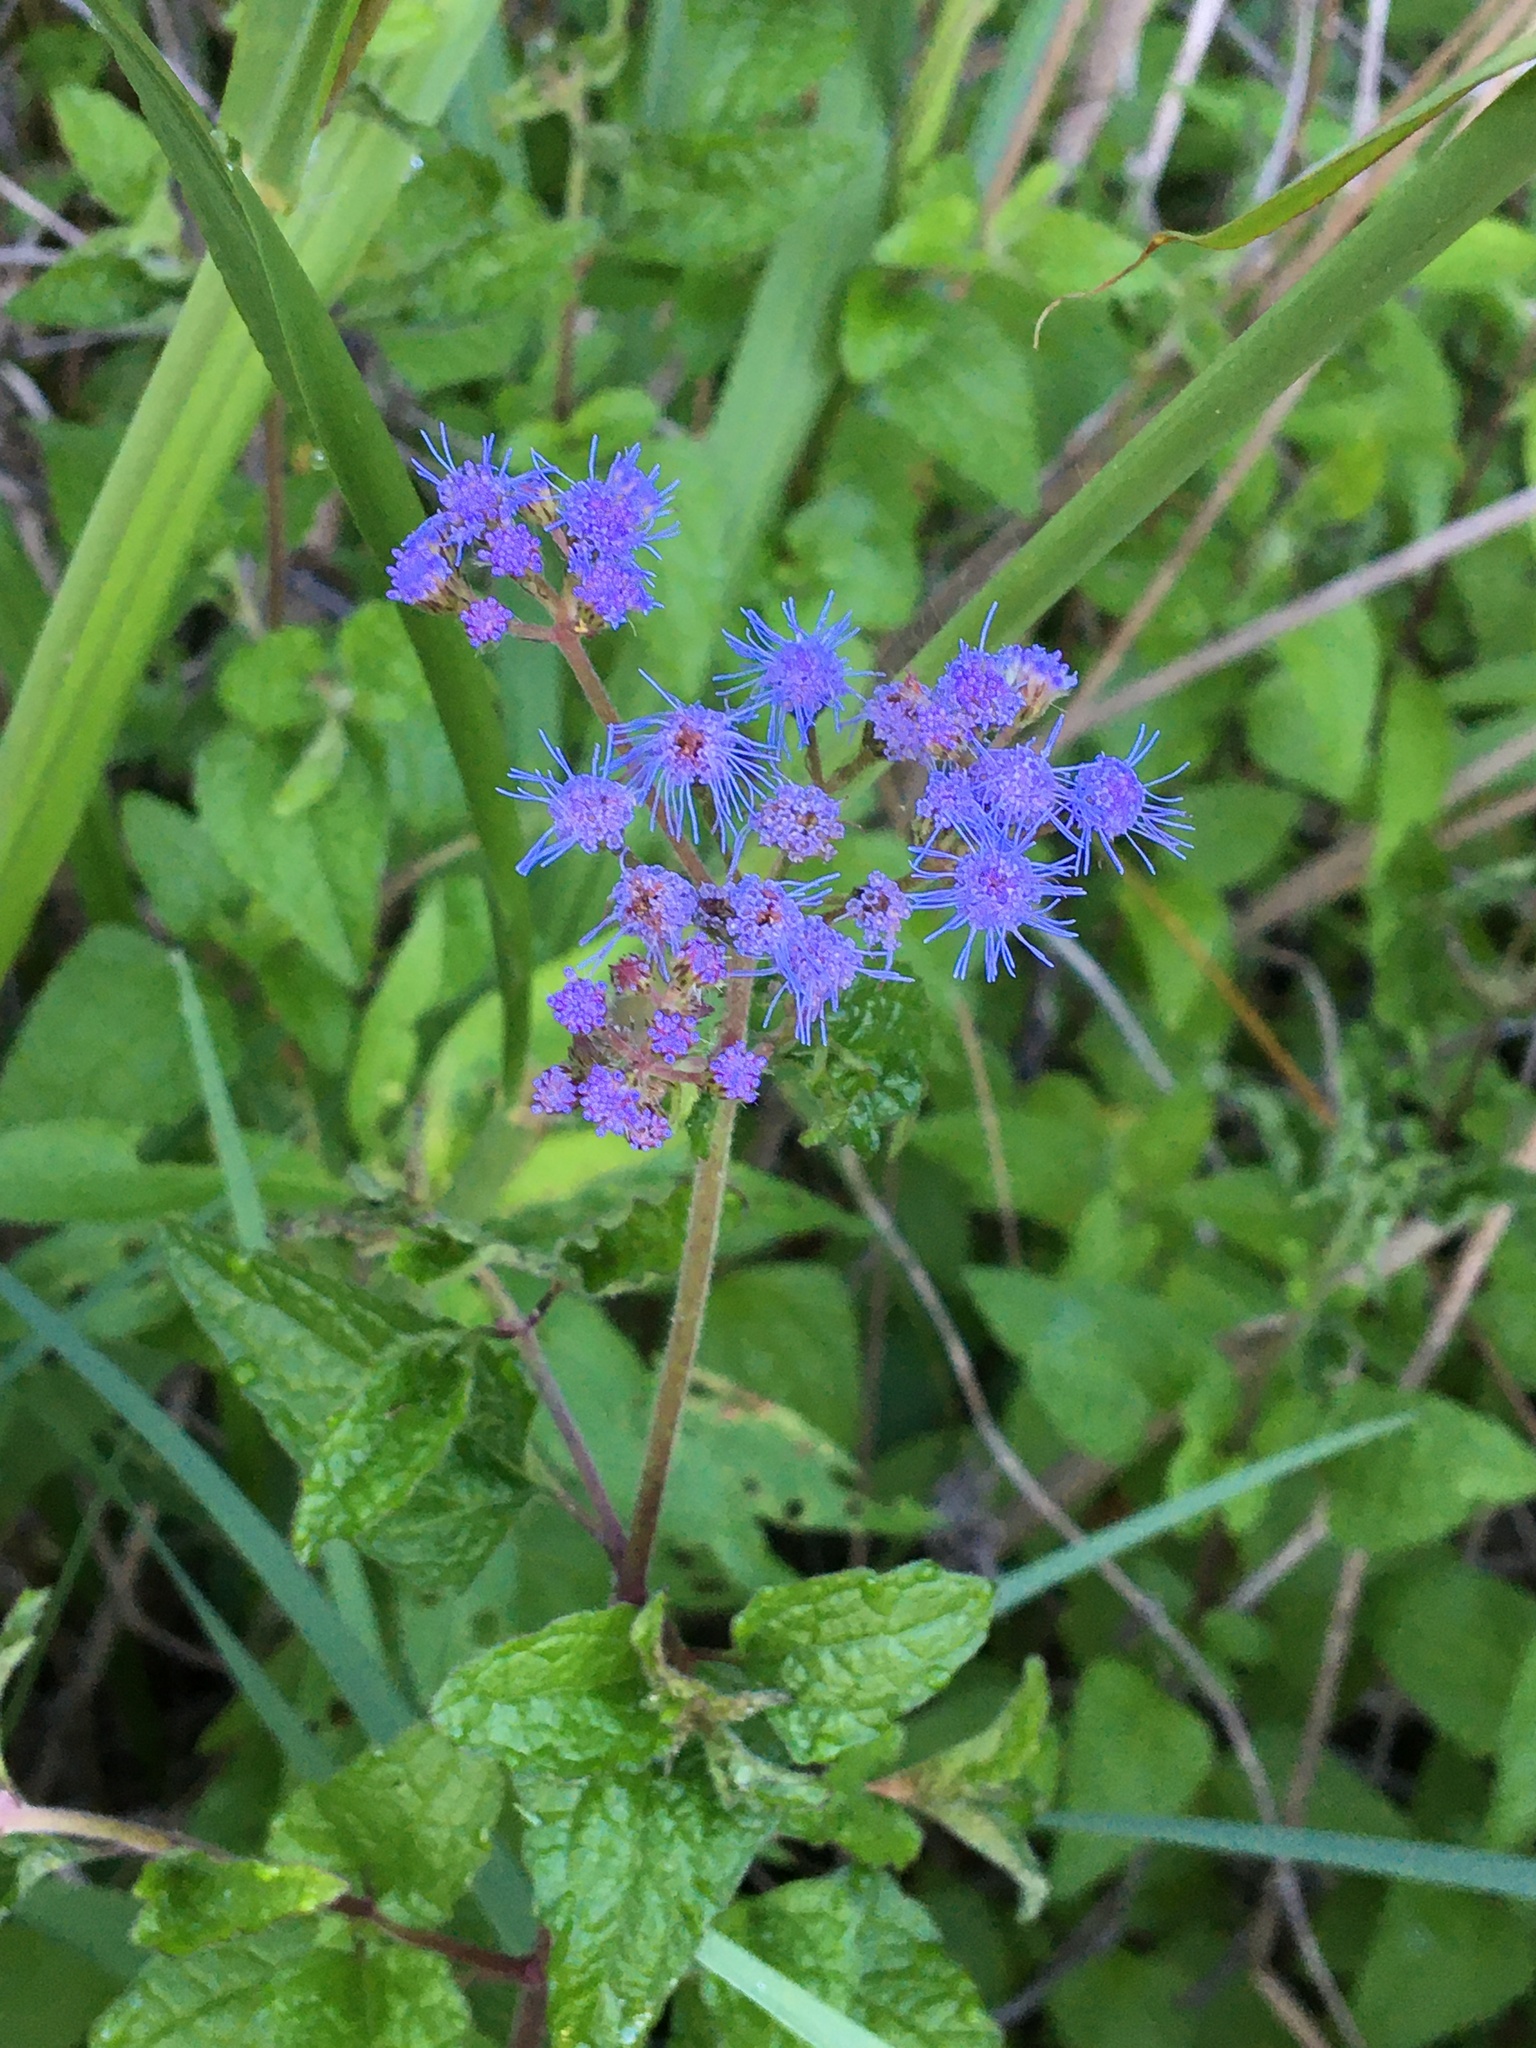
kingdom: Plantae
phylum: Tracheophyta
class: Magnoliopsida
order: Asterales
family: Asteraceae
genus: Conoclinium
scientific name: Conoclinium coelestinum
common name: Blue mistflower
